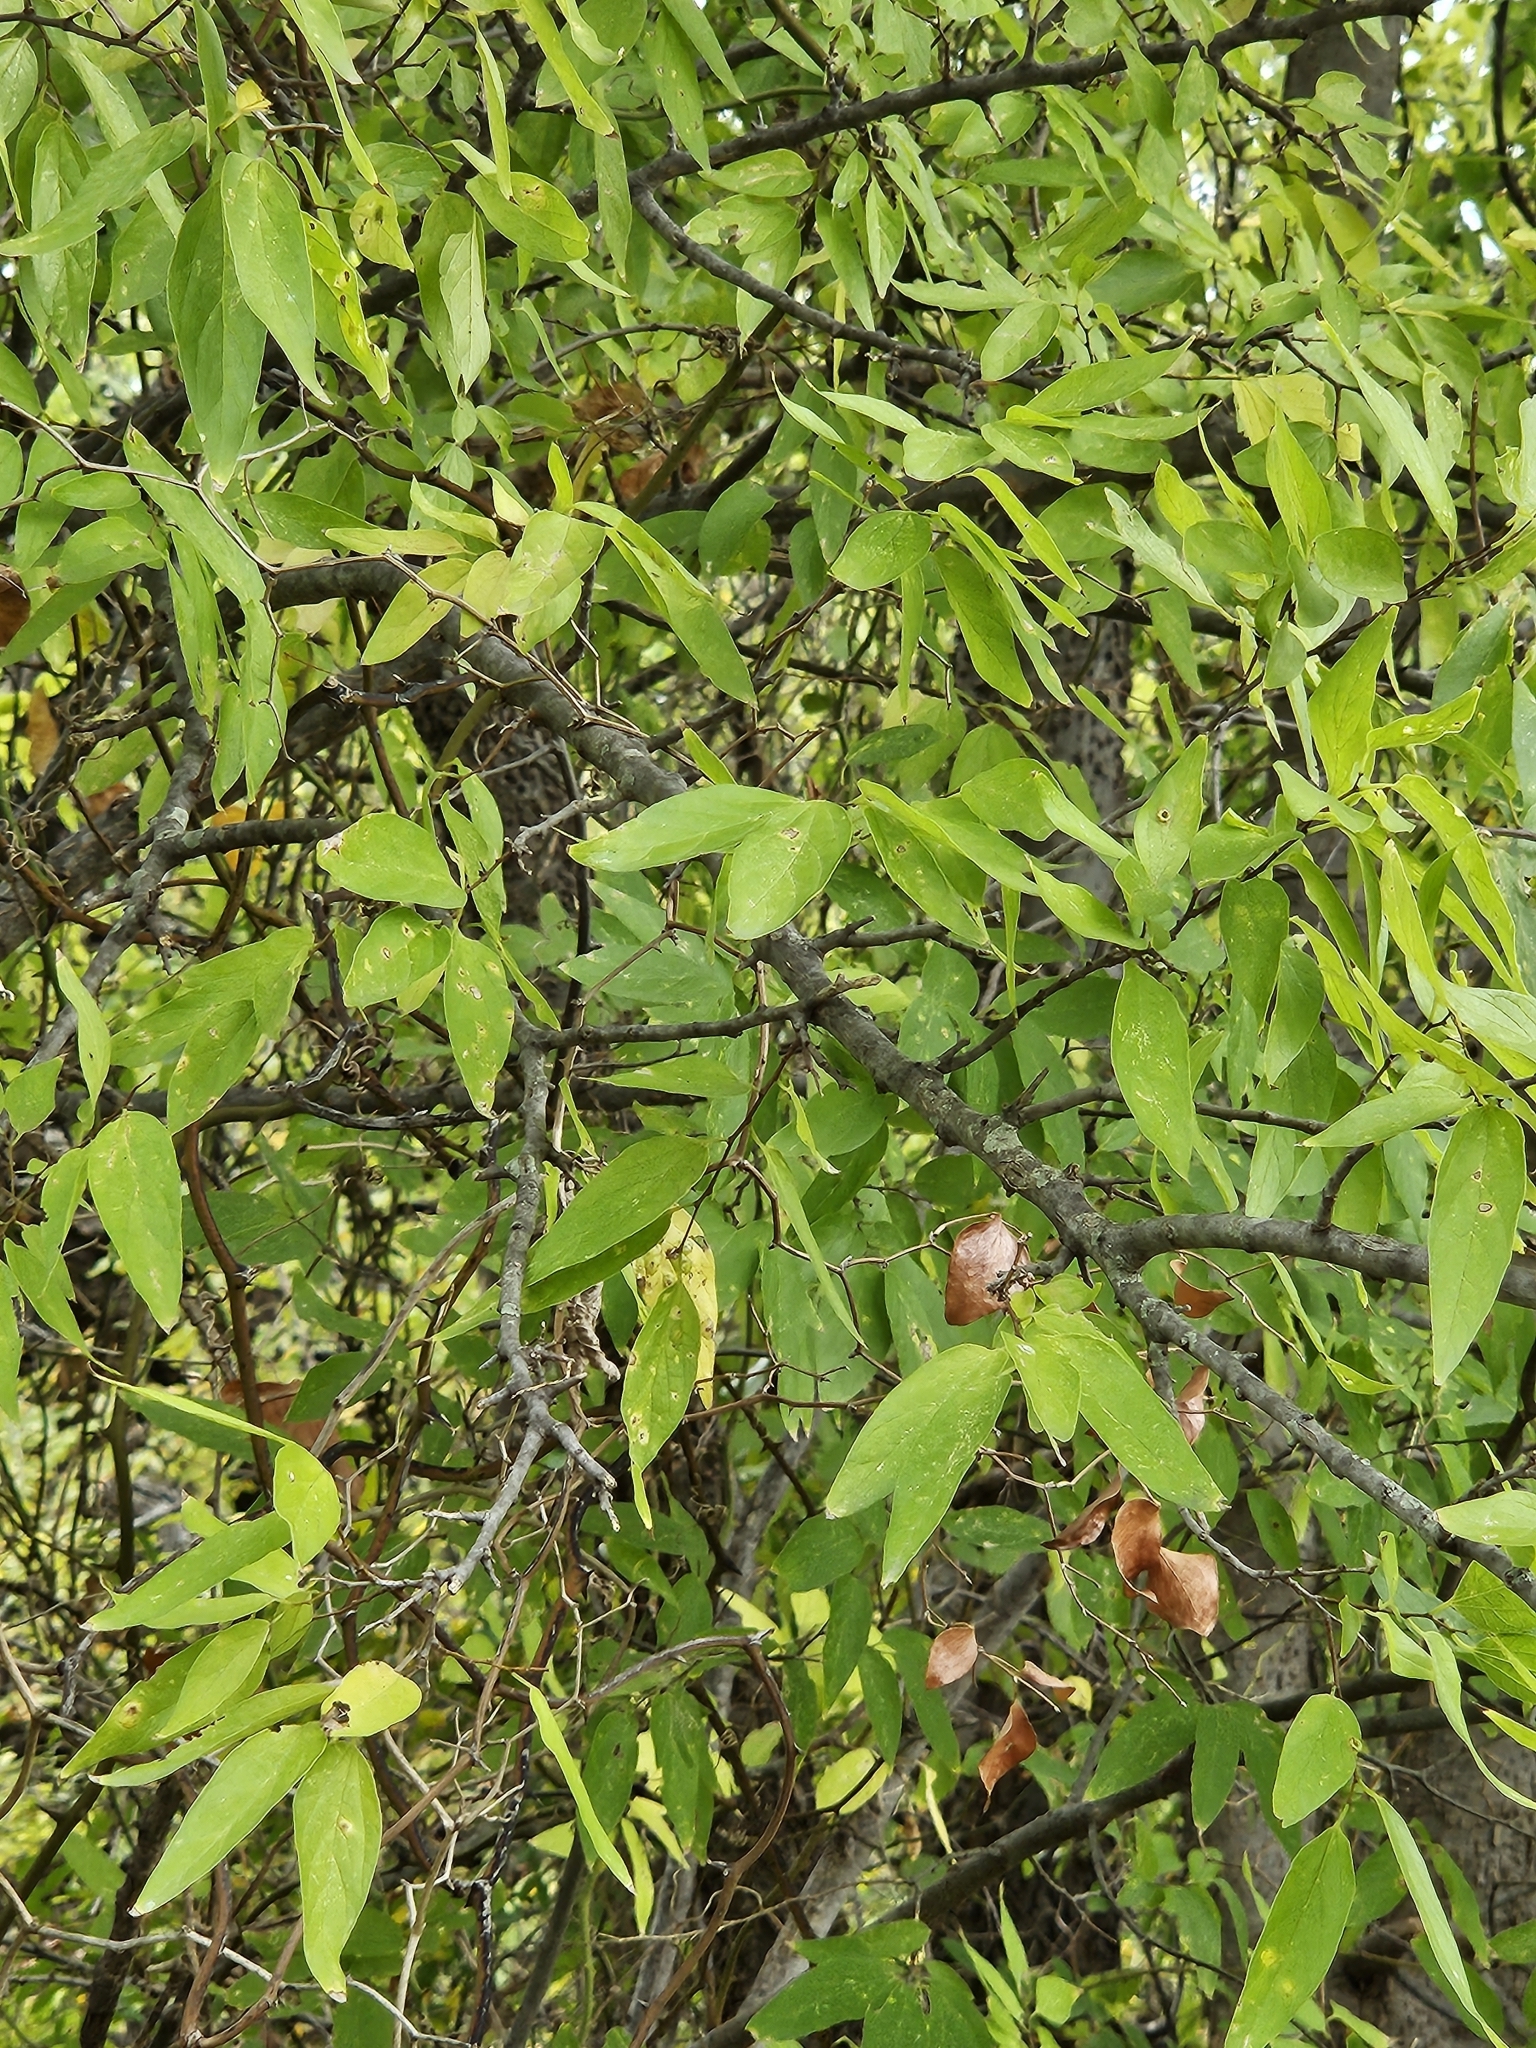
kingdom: Plantae
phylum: Tracheophyta
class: Magnoliopsida
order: Rosales
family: Cannabaceae
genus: Celtis
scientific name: Celtis laevigata
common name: Sugarberry
